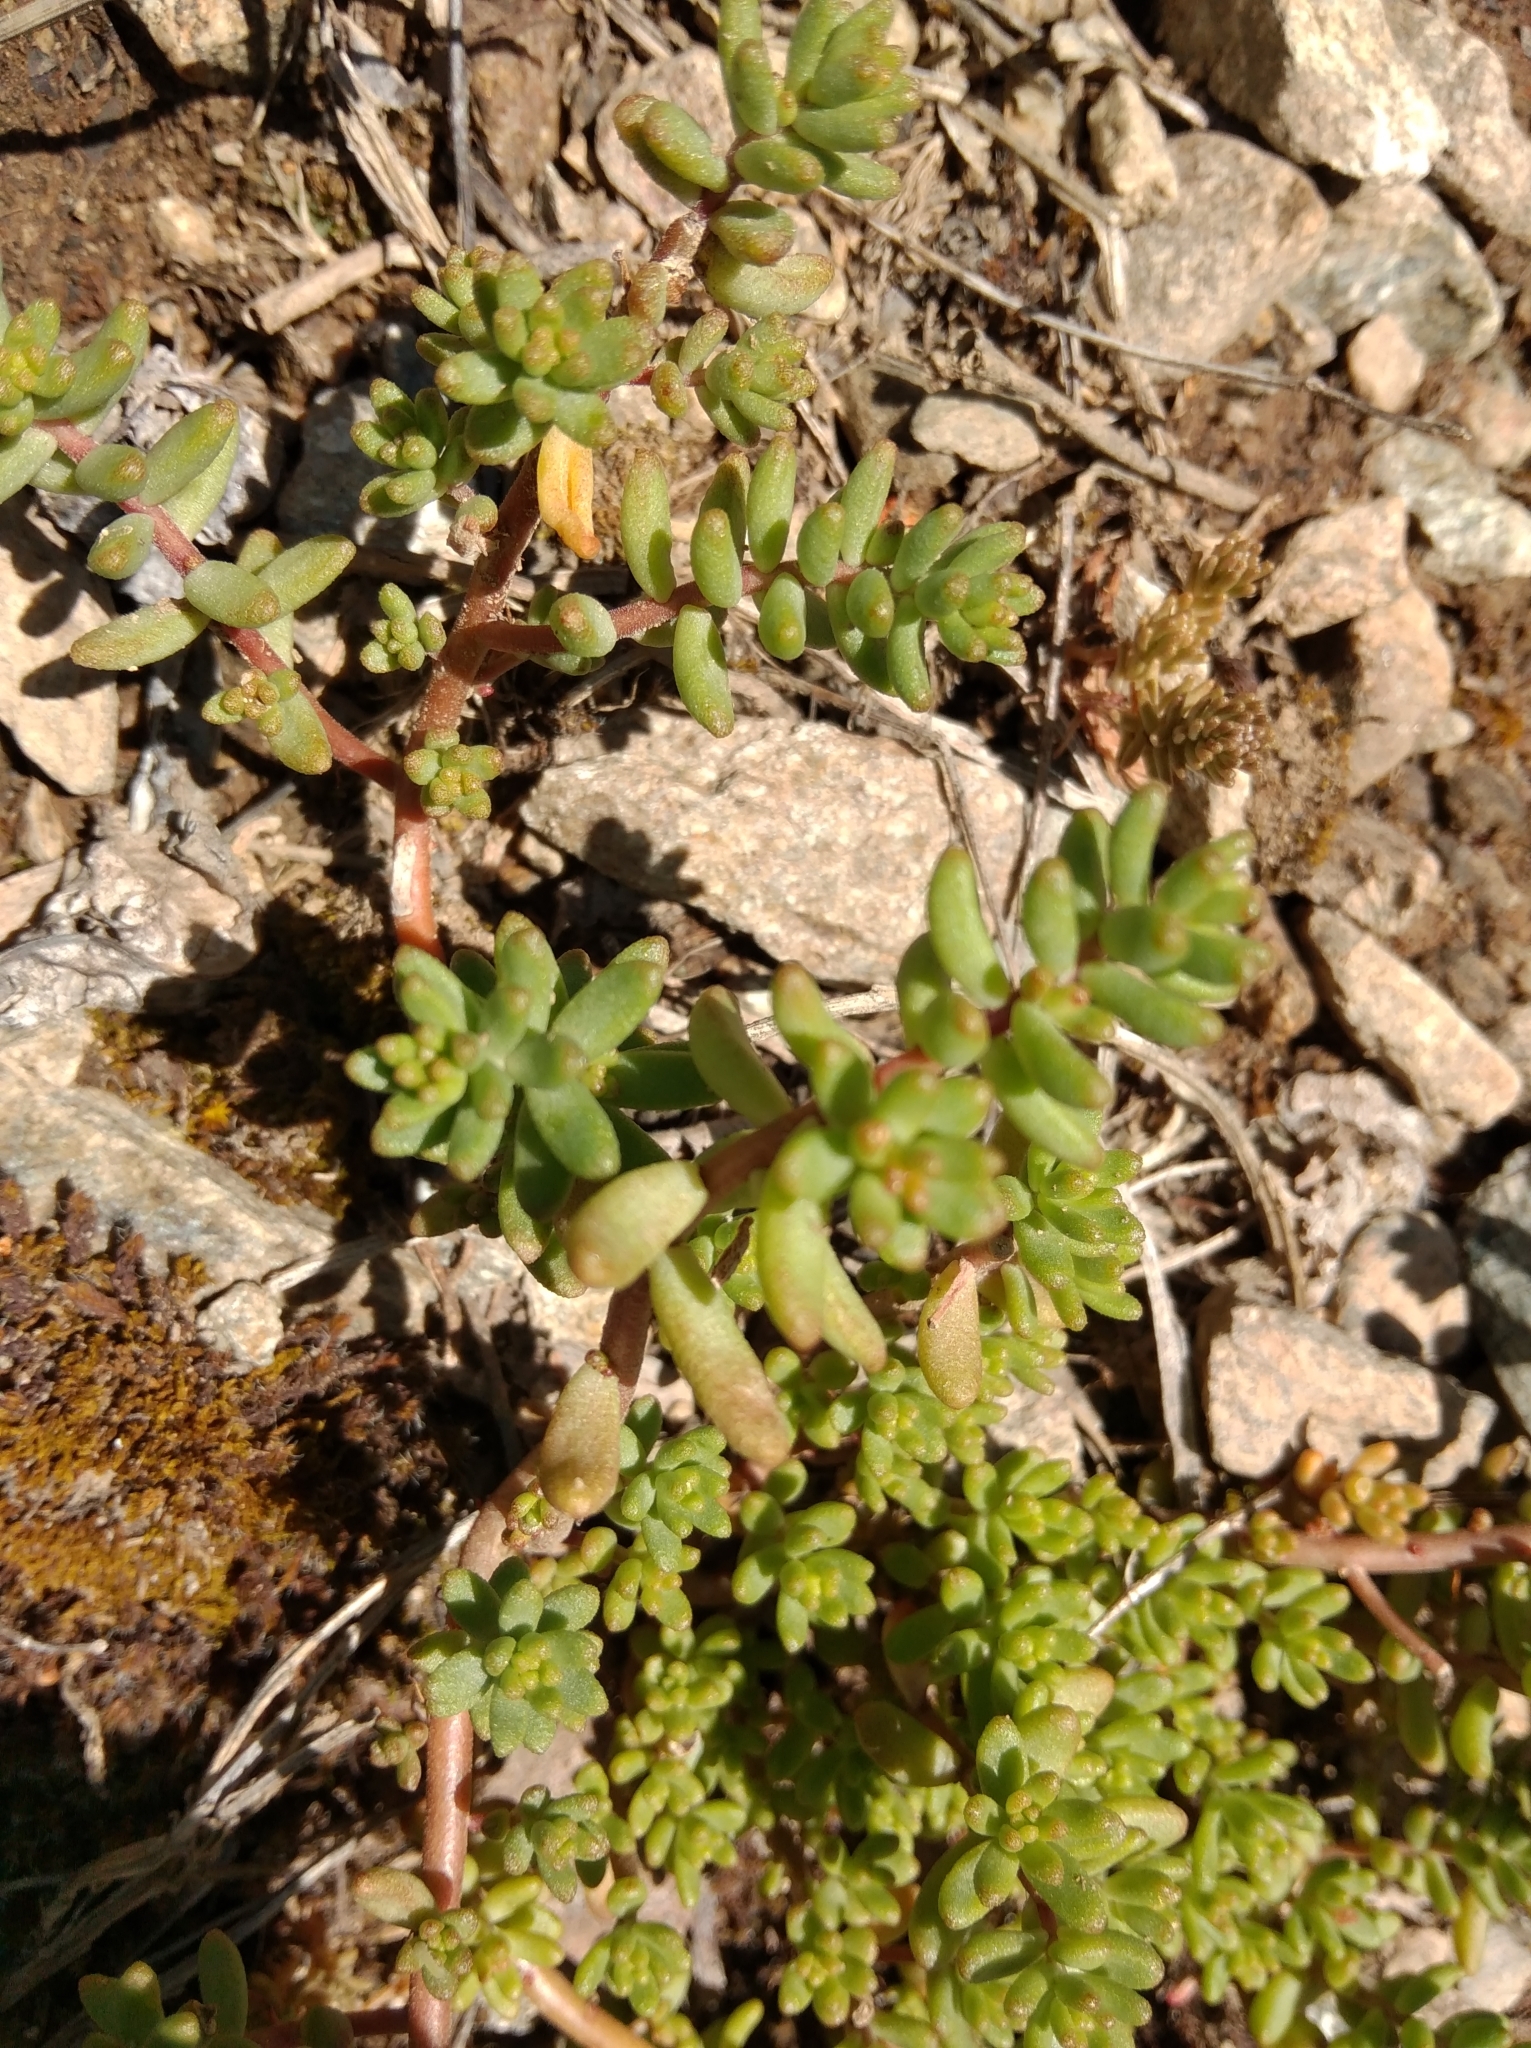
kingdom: Plantae
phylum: Tracheophyta
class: Magnoliopsida
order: Saxifragales
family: Crassulaceae
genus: Sedum
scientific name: Sedum album
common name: White stonecrop
